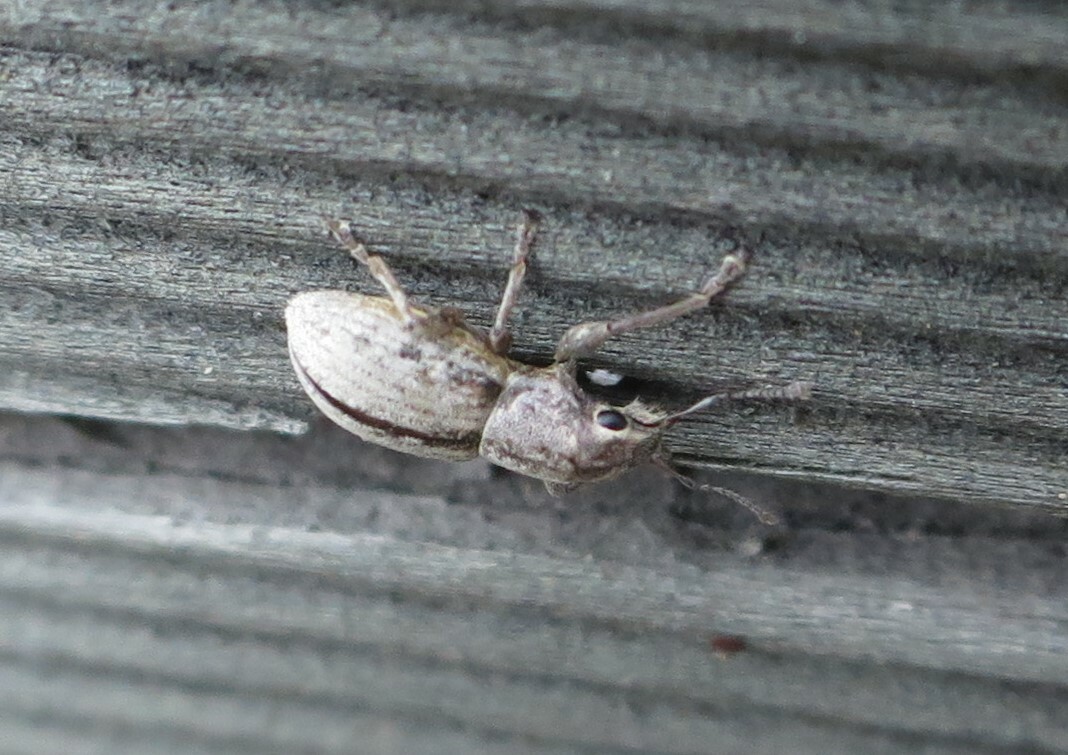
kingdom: Animalia
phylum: Arthropoda
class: Insecta
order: Coleoptera
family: Curculionidae
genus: Atrichonotus
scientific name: Atrichonotus taeniatulus
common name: Small lucerne weevil
